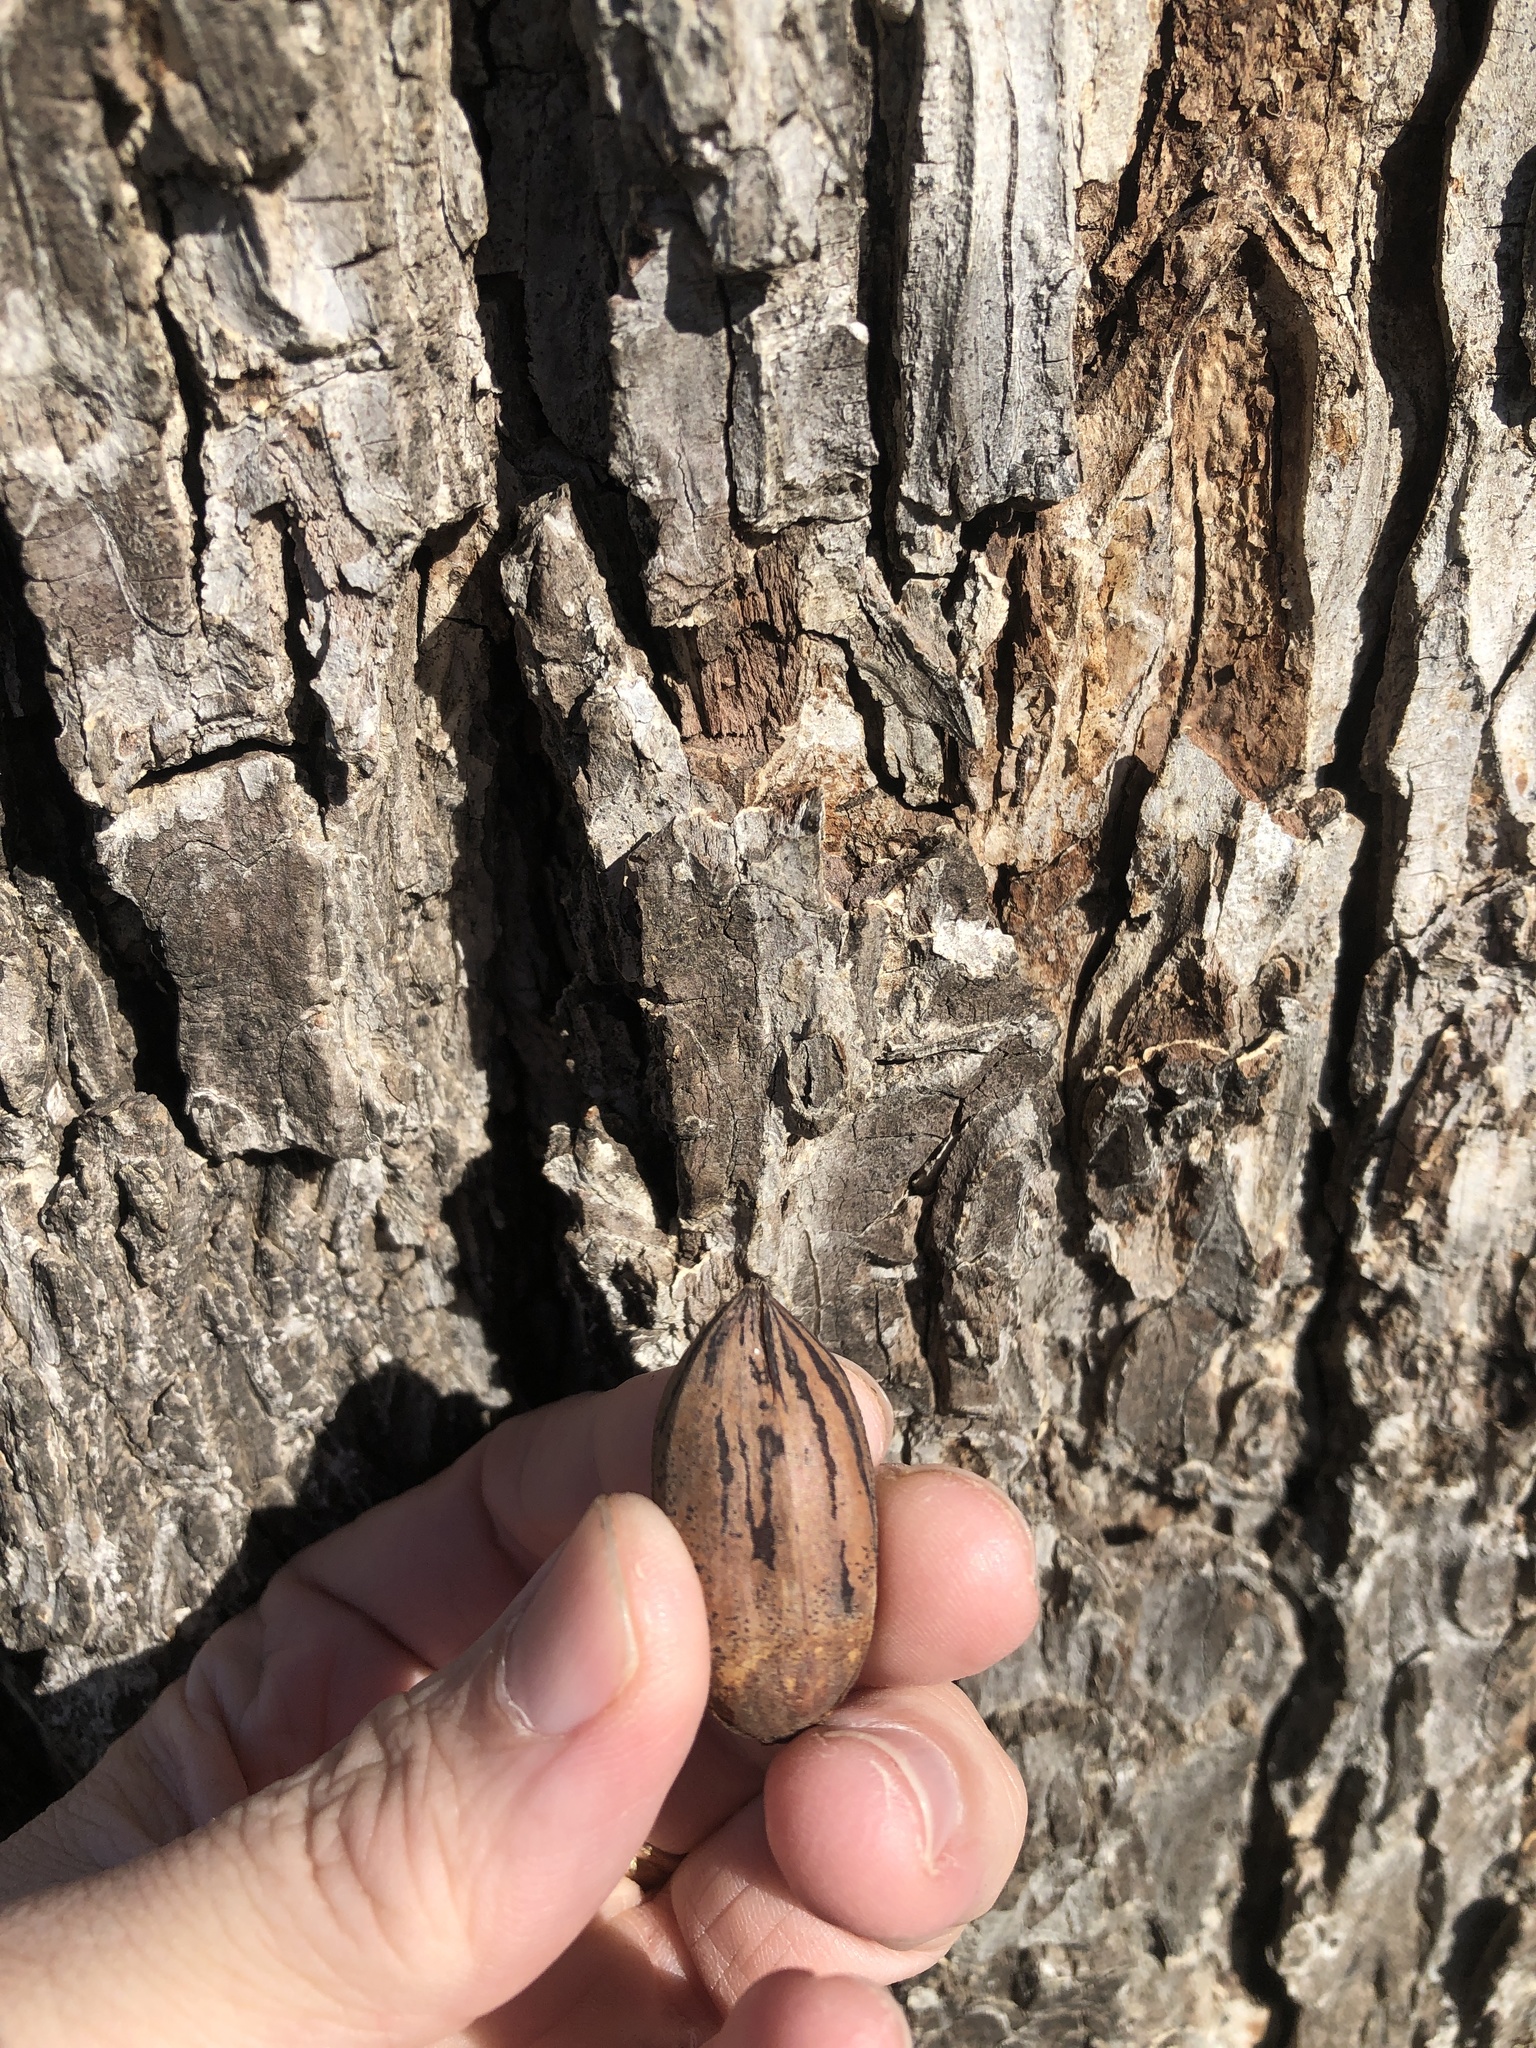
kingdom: Plantae
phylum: Tracheophyta
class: Magnoliopsida
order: Fagales
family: Juglandaceae
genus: Carya
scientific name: Carya illinoinensis
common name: Pecan
